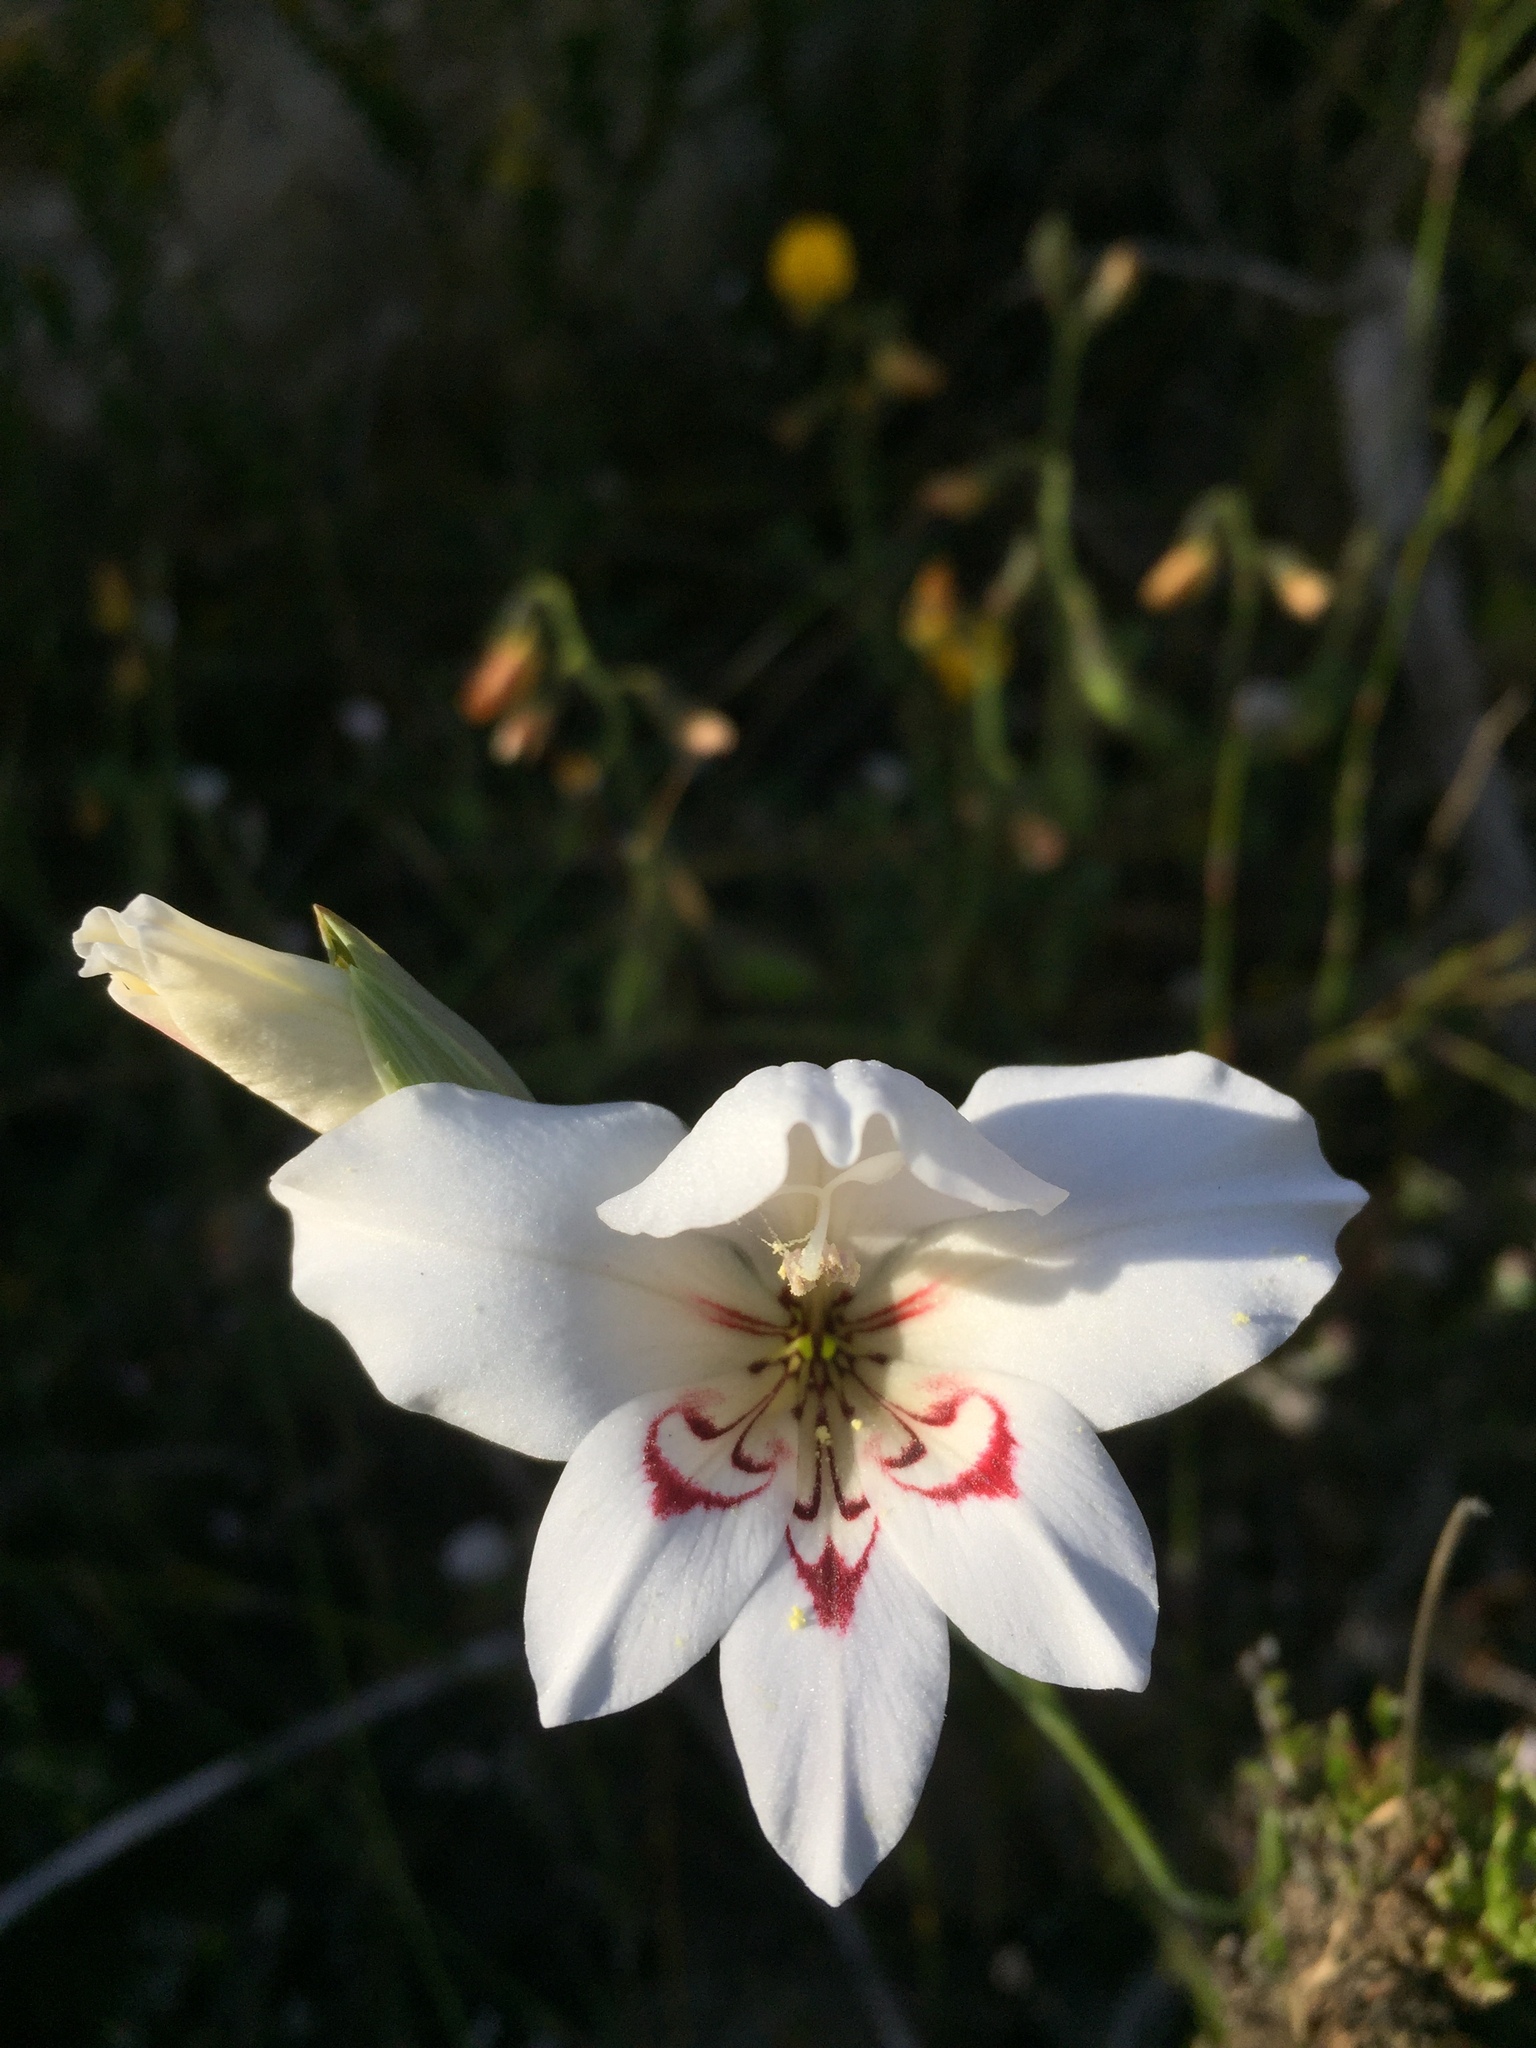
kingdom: Plantae
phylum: Tracheophyta
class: Liliopsida
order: Asparagales
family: Iridaceae
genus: Gladiolus
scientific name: Gladiolus debilis
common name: Painted-lady
